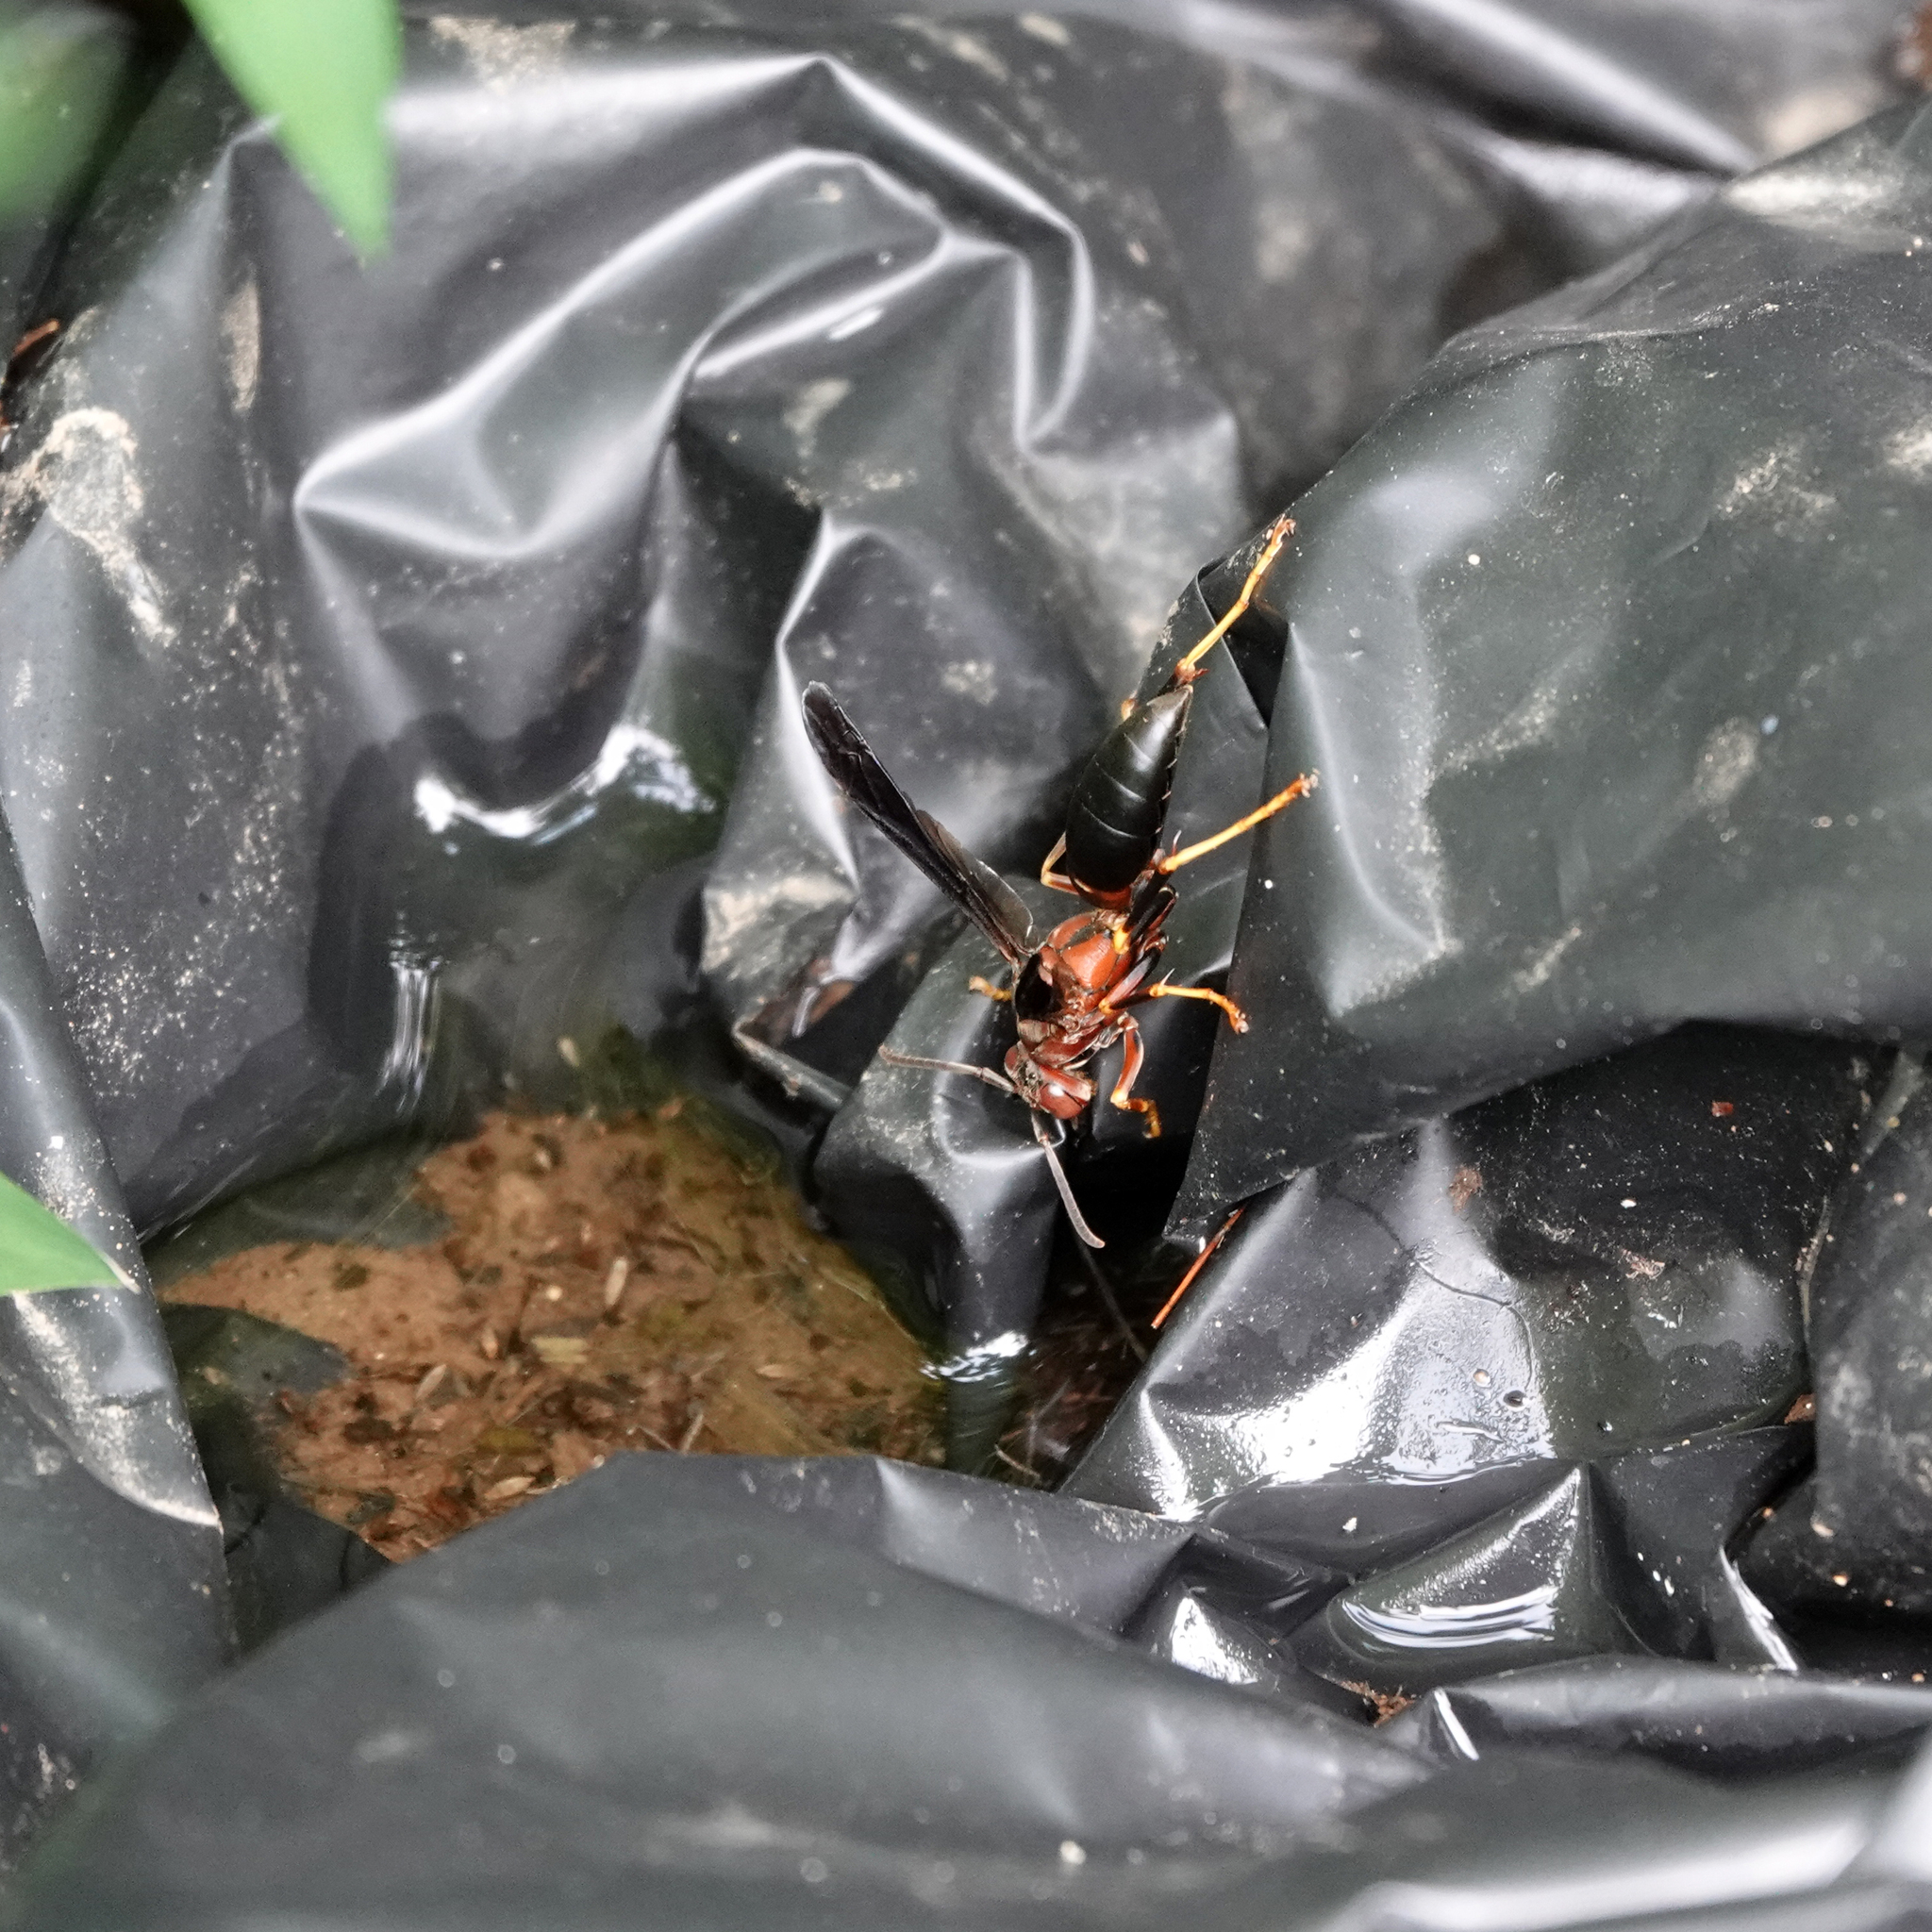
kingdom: Animalia
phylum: Arthropoda
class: Insecta
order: Hymenoptera
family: Eumenidae
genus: Polistes
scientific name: Polistes metricus
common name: Metric paper wasp
